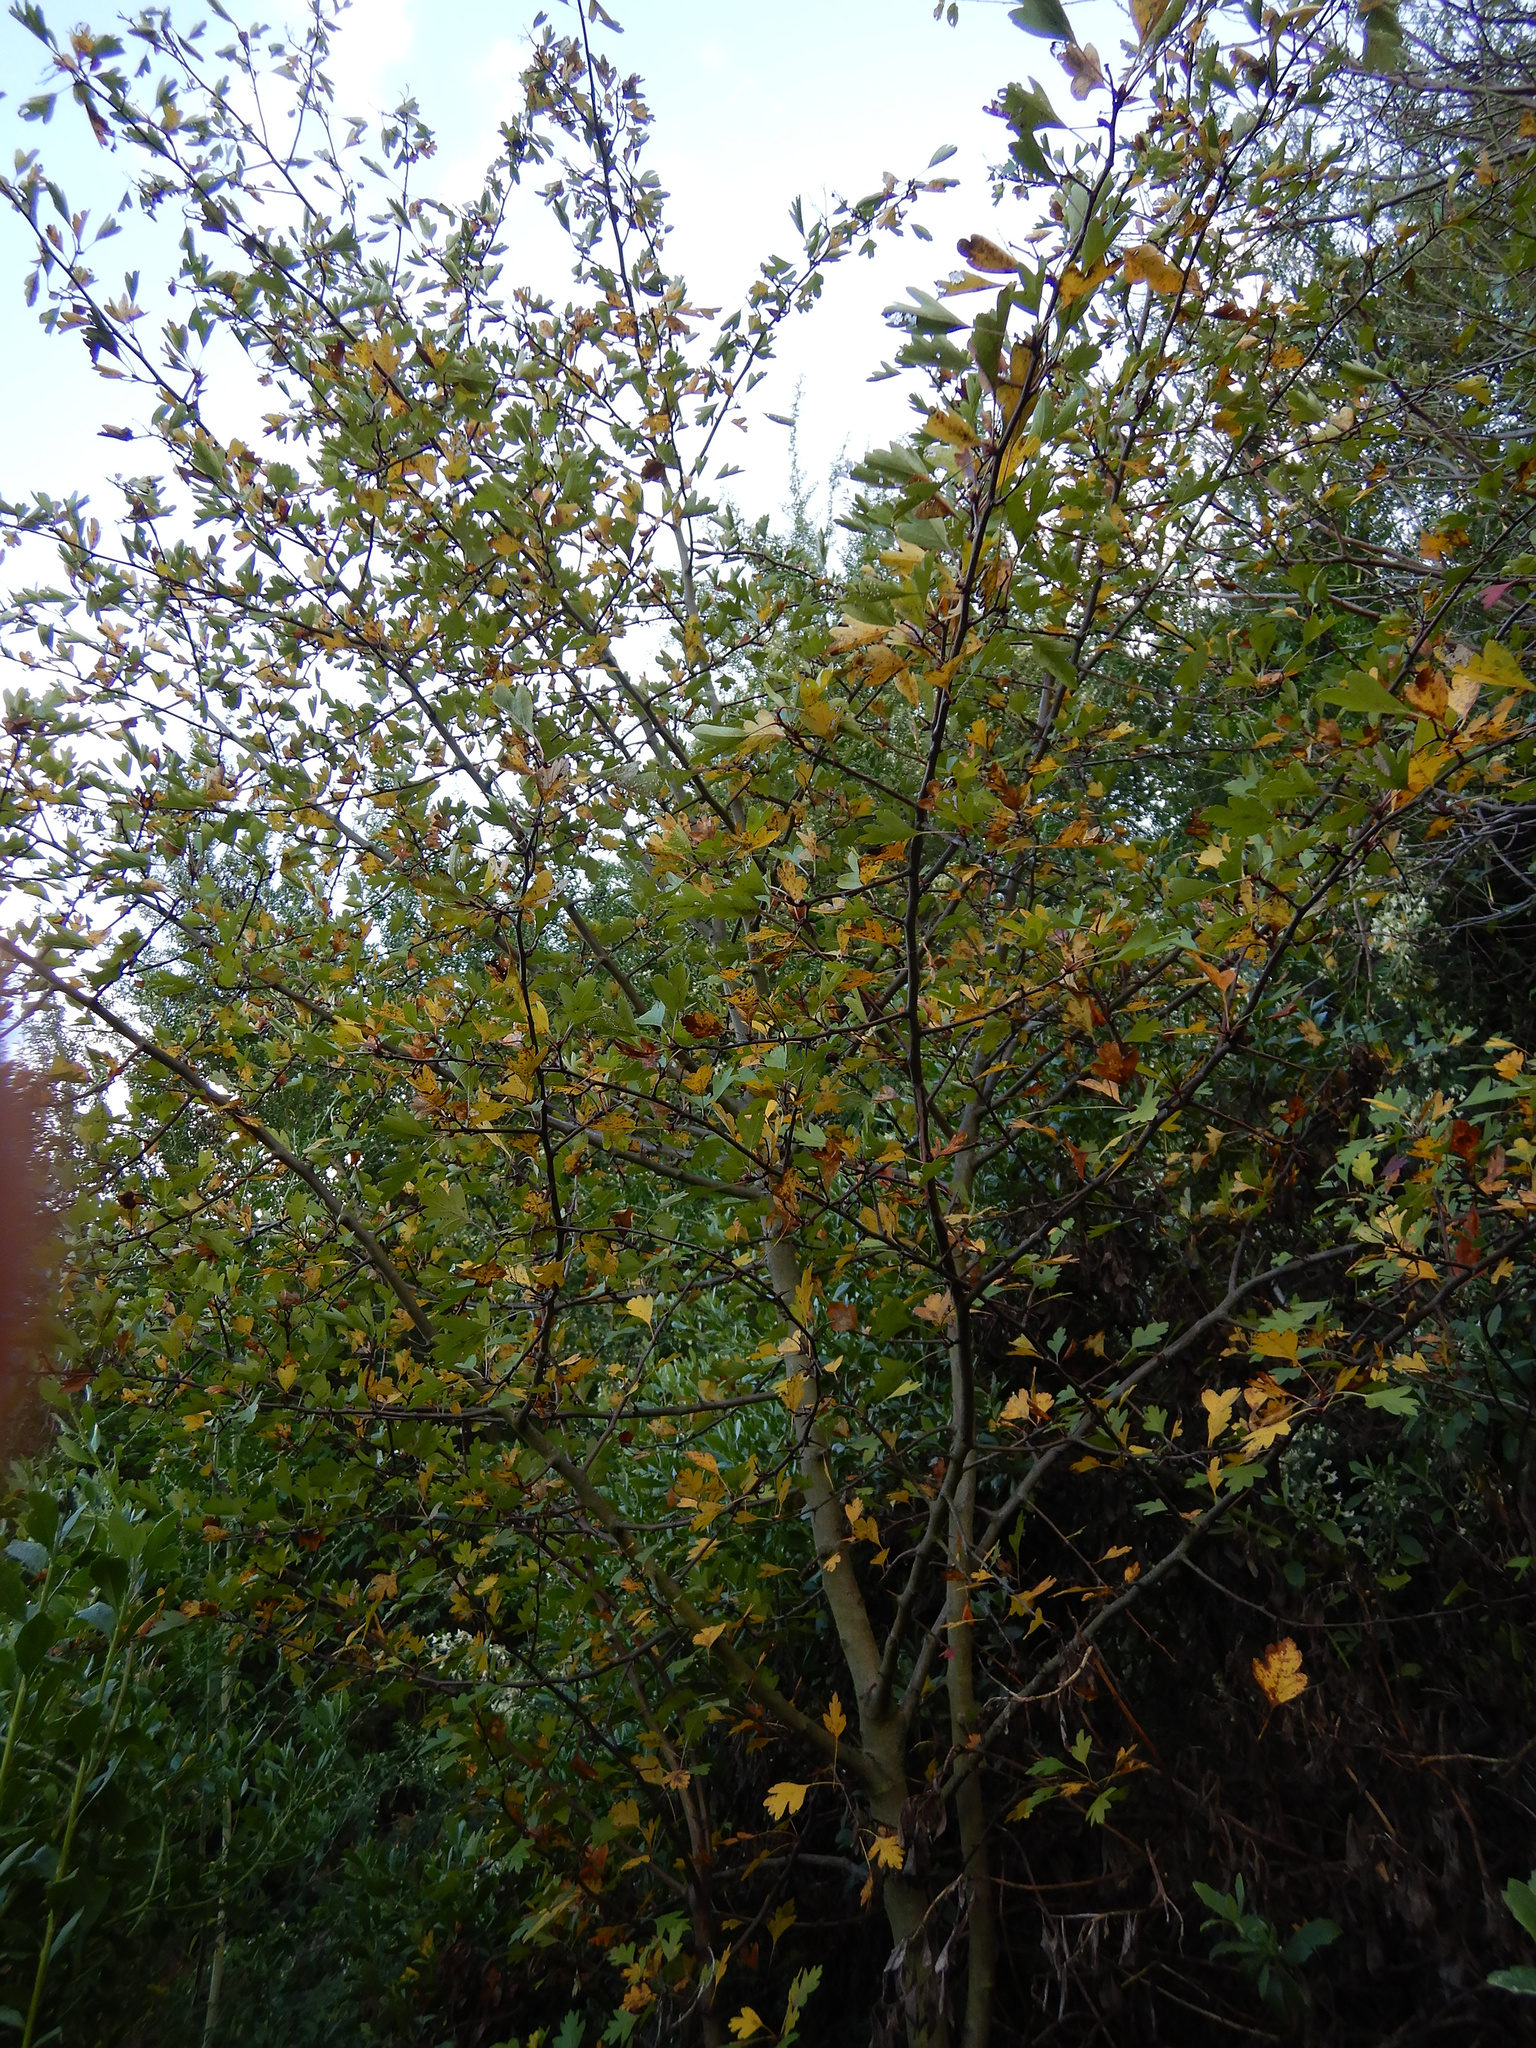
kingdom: Plantae
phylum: Tracheophyta
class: Magnoliopsida
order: Rosales
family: Rosaceae
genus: Crataegus
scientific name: Crataegus monogyna
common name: Hawthorn
